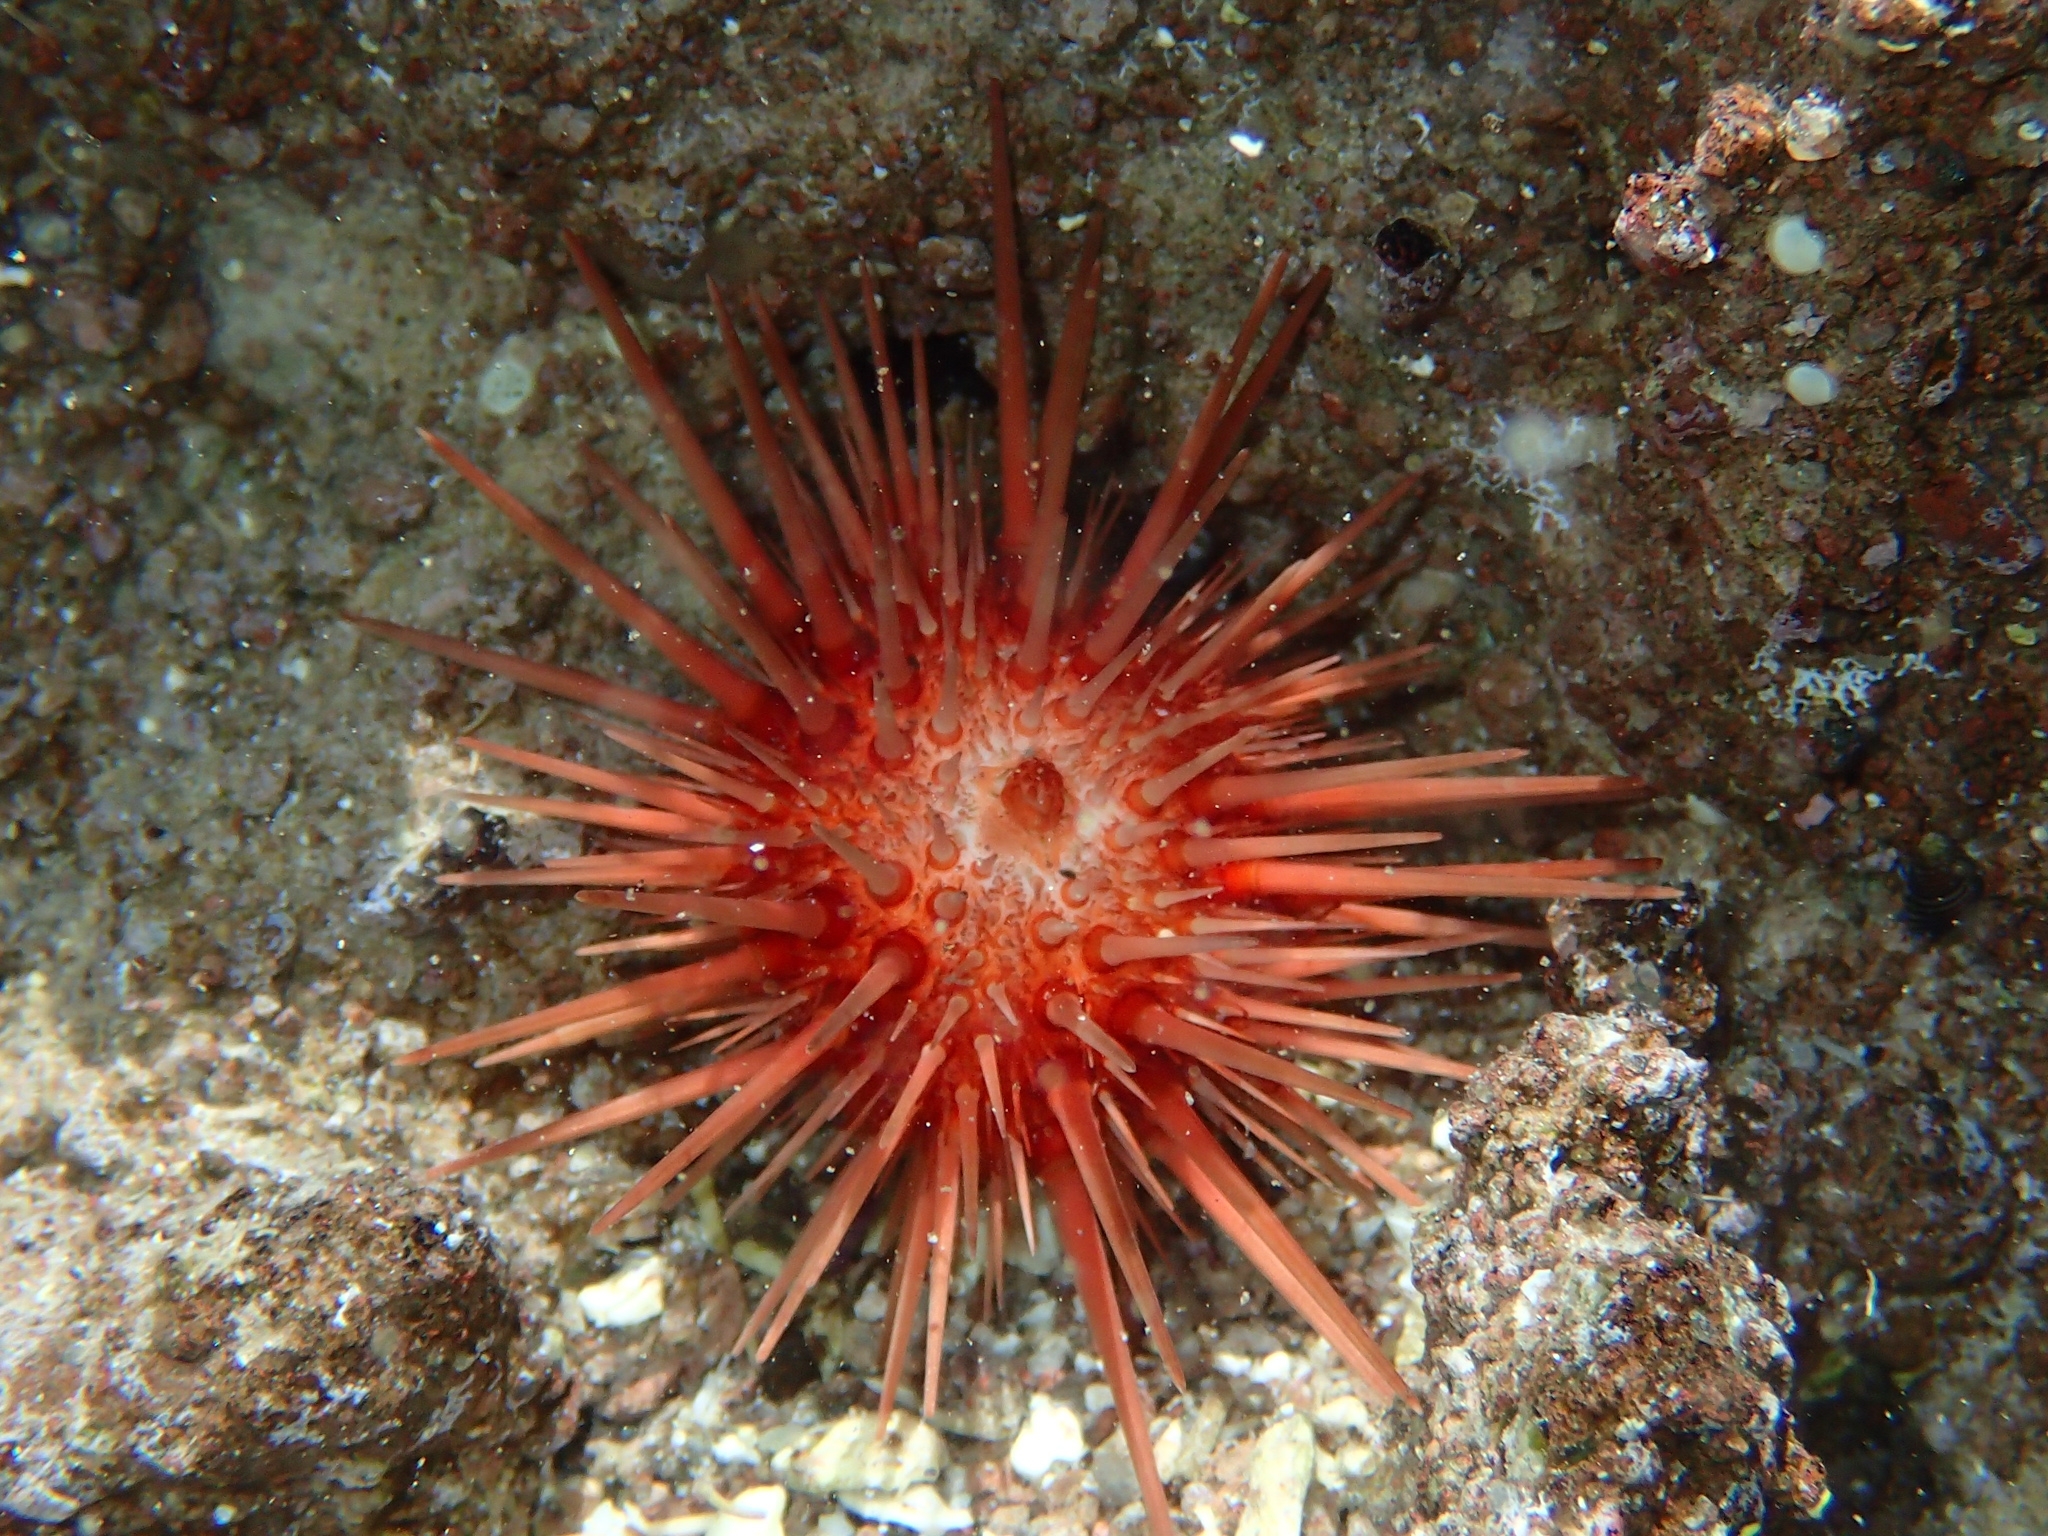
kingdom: Animalia
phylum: Echinodermata
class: Echinoidea
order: Camarodonta
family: Echinometridae
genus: Echinometra
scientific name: Echinometra lucunter
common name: Rock urchin
